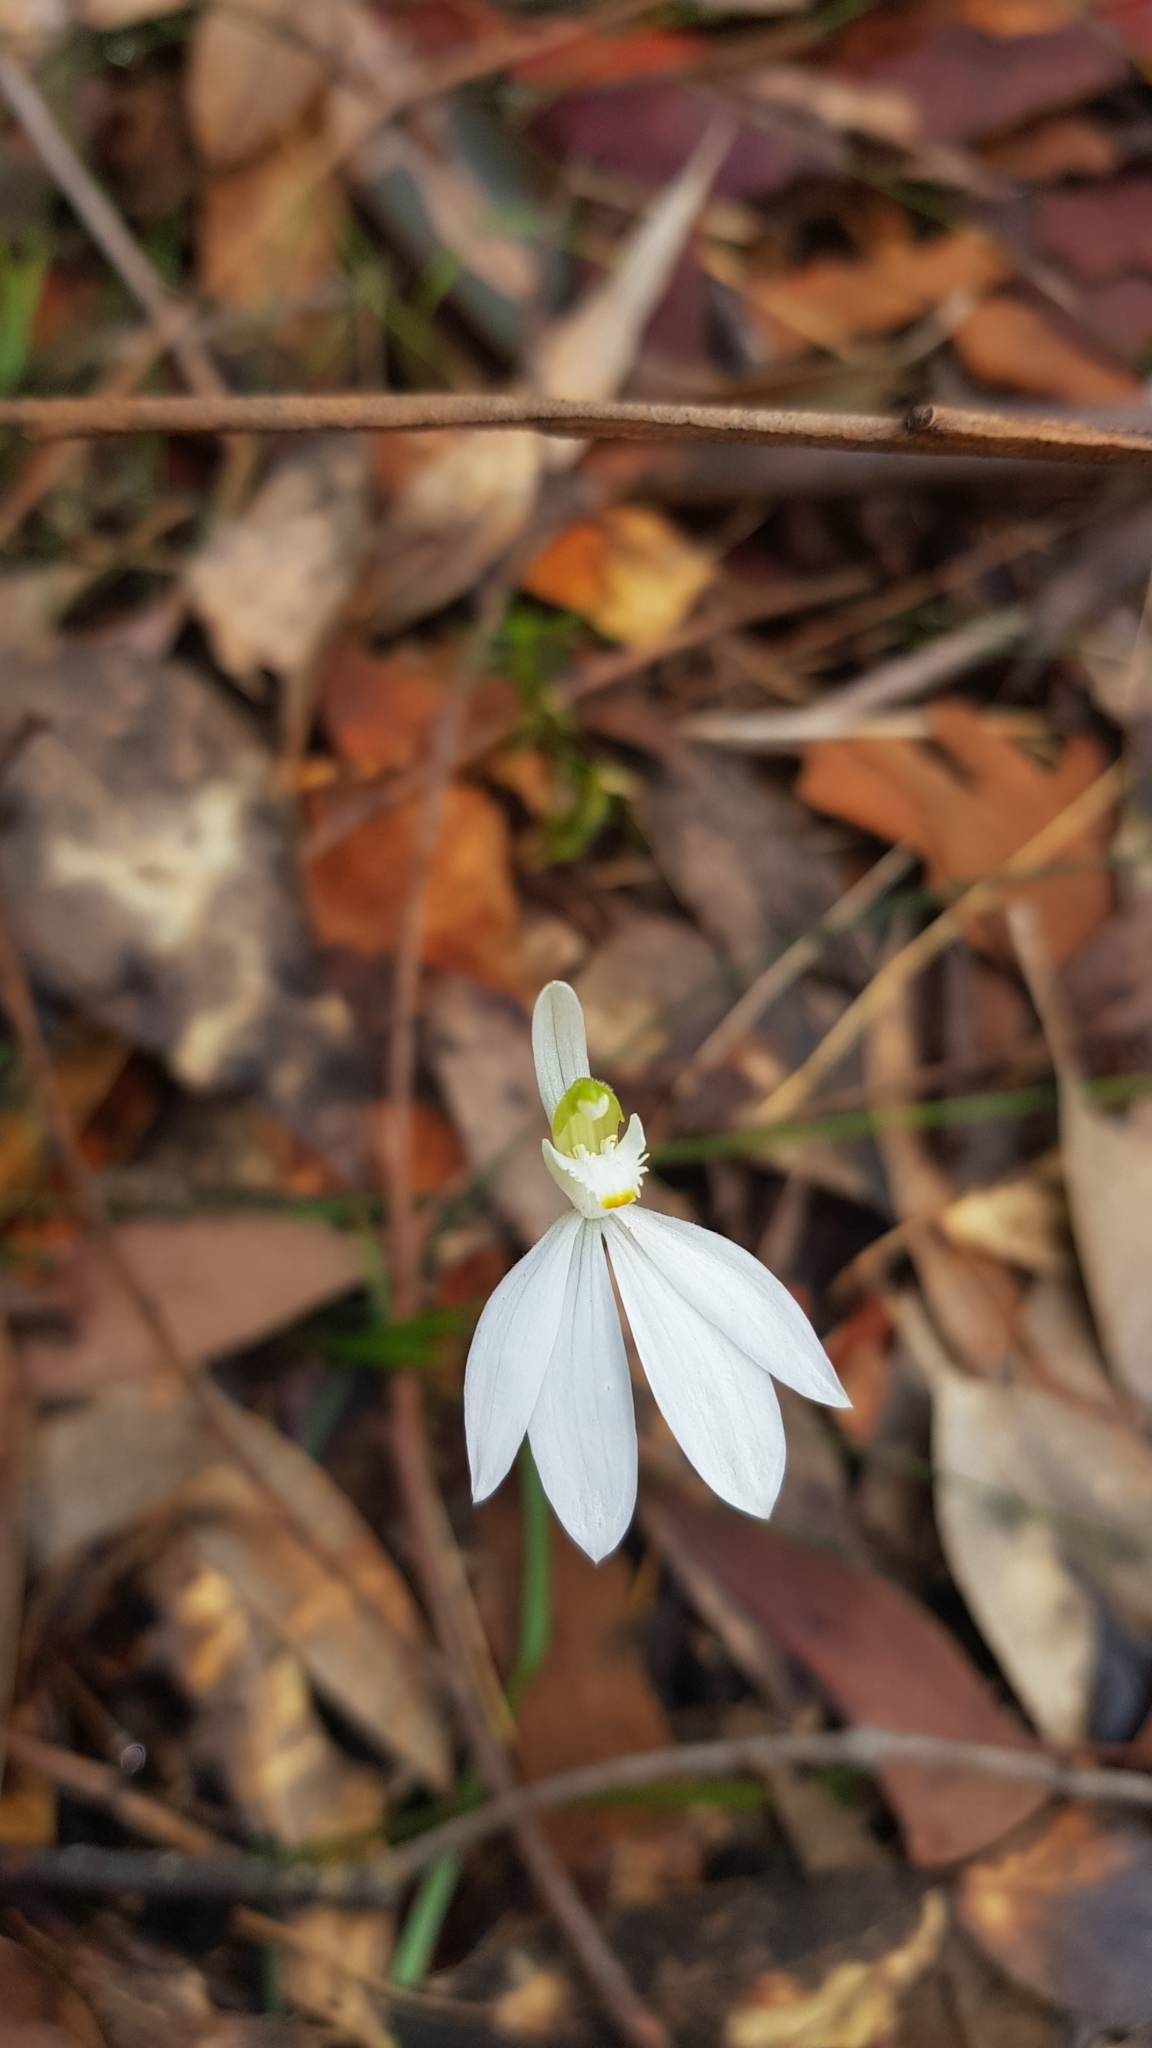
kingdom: Plantae
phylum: Tracheophyta
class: Liliopsida
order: Asparagales
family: Orchidaceae
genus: Caladenia
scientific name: Caladenia catenata
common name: White caladenia
